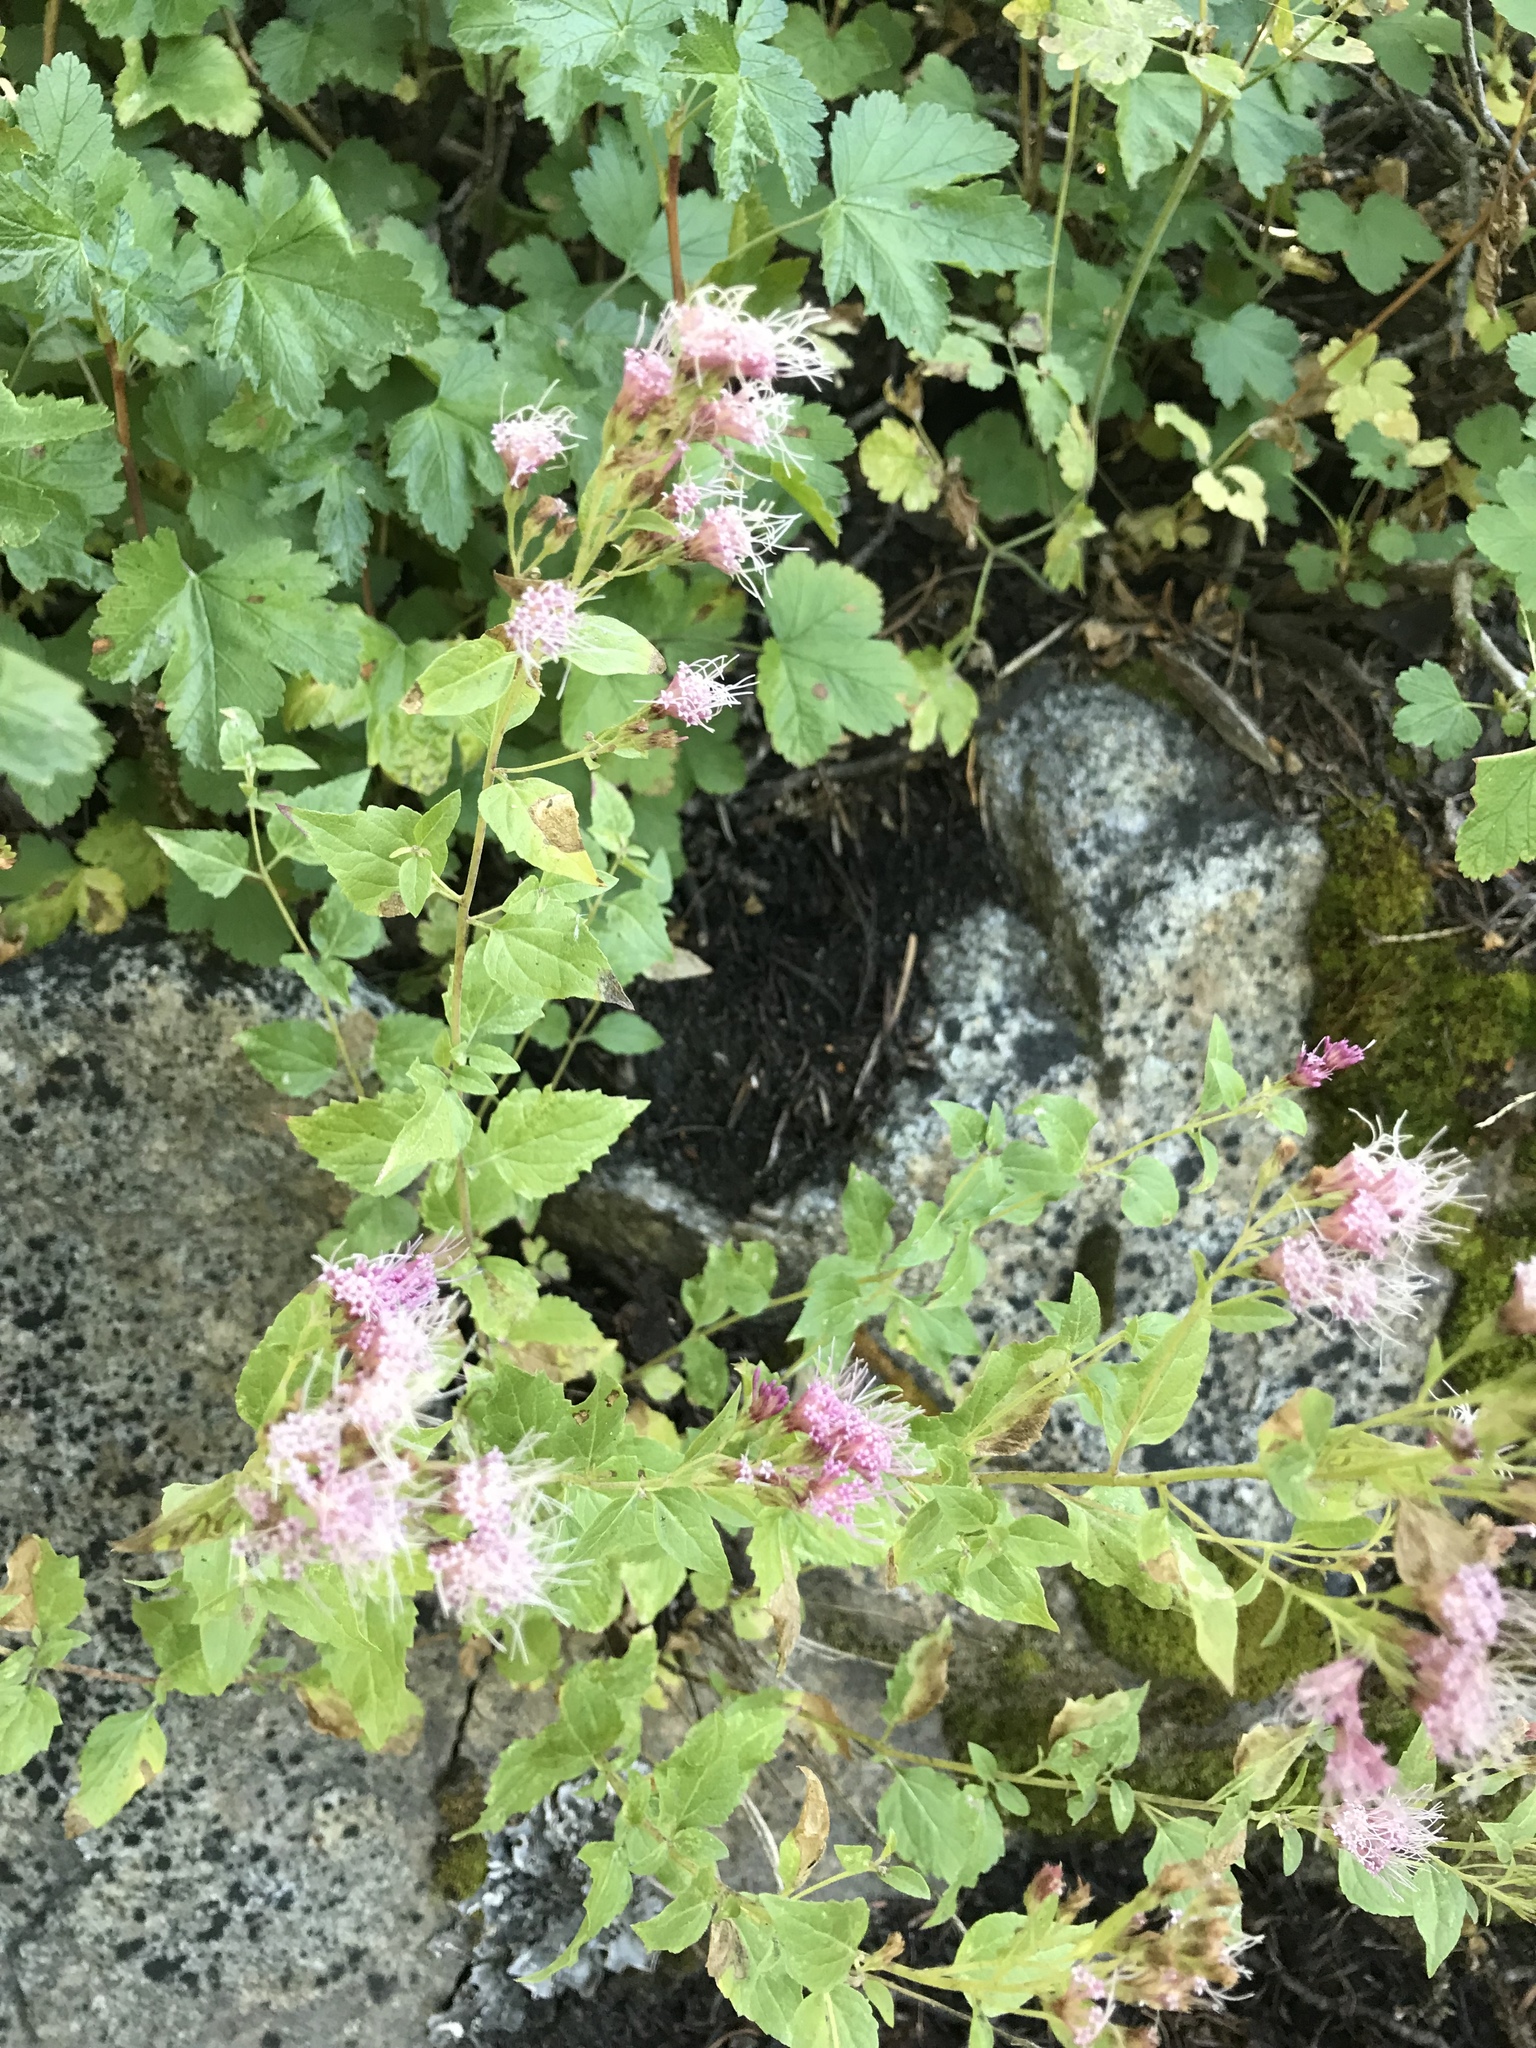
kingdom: Plantae
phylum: Tracheophyta
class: Magnoliopsida
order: Asterales
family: Asteraceae
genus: Ageratina
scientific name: Ageratina occidentalis
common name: Western snakeroot
